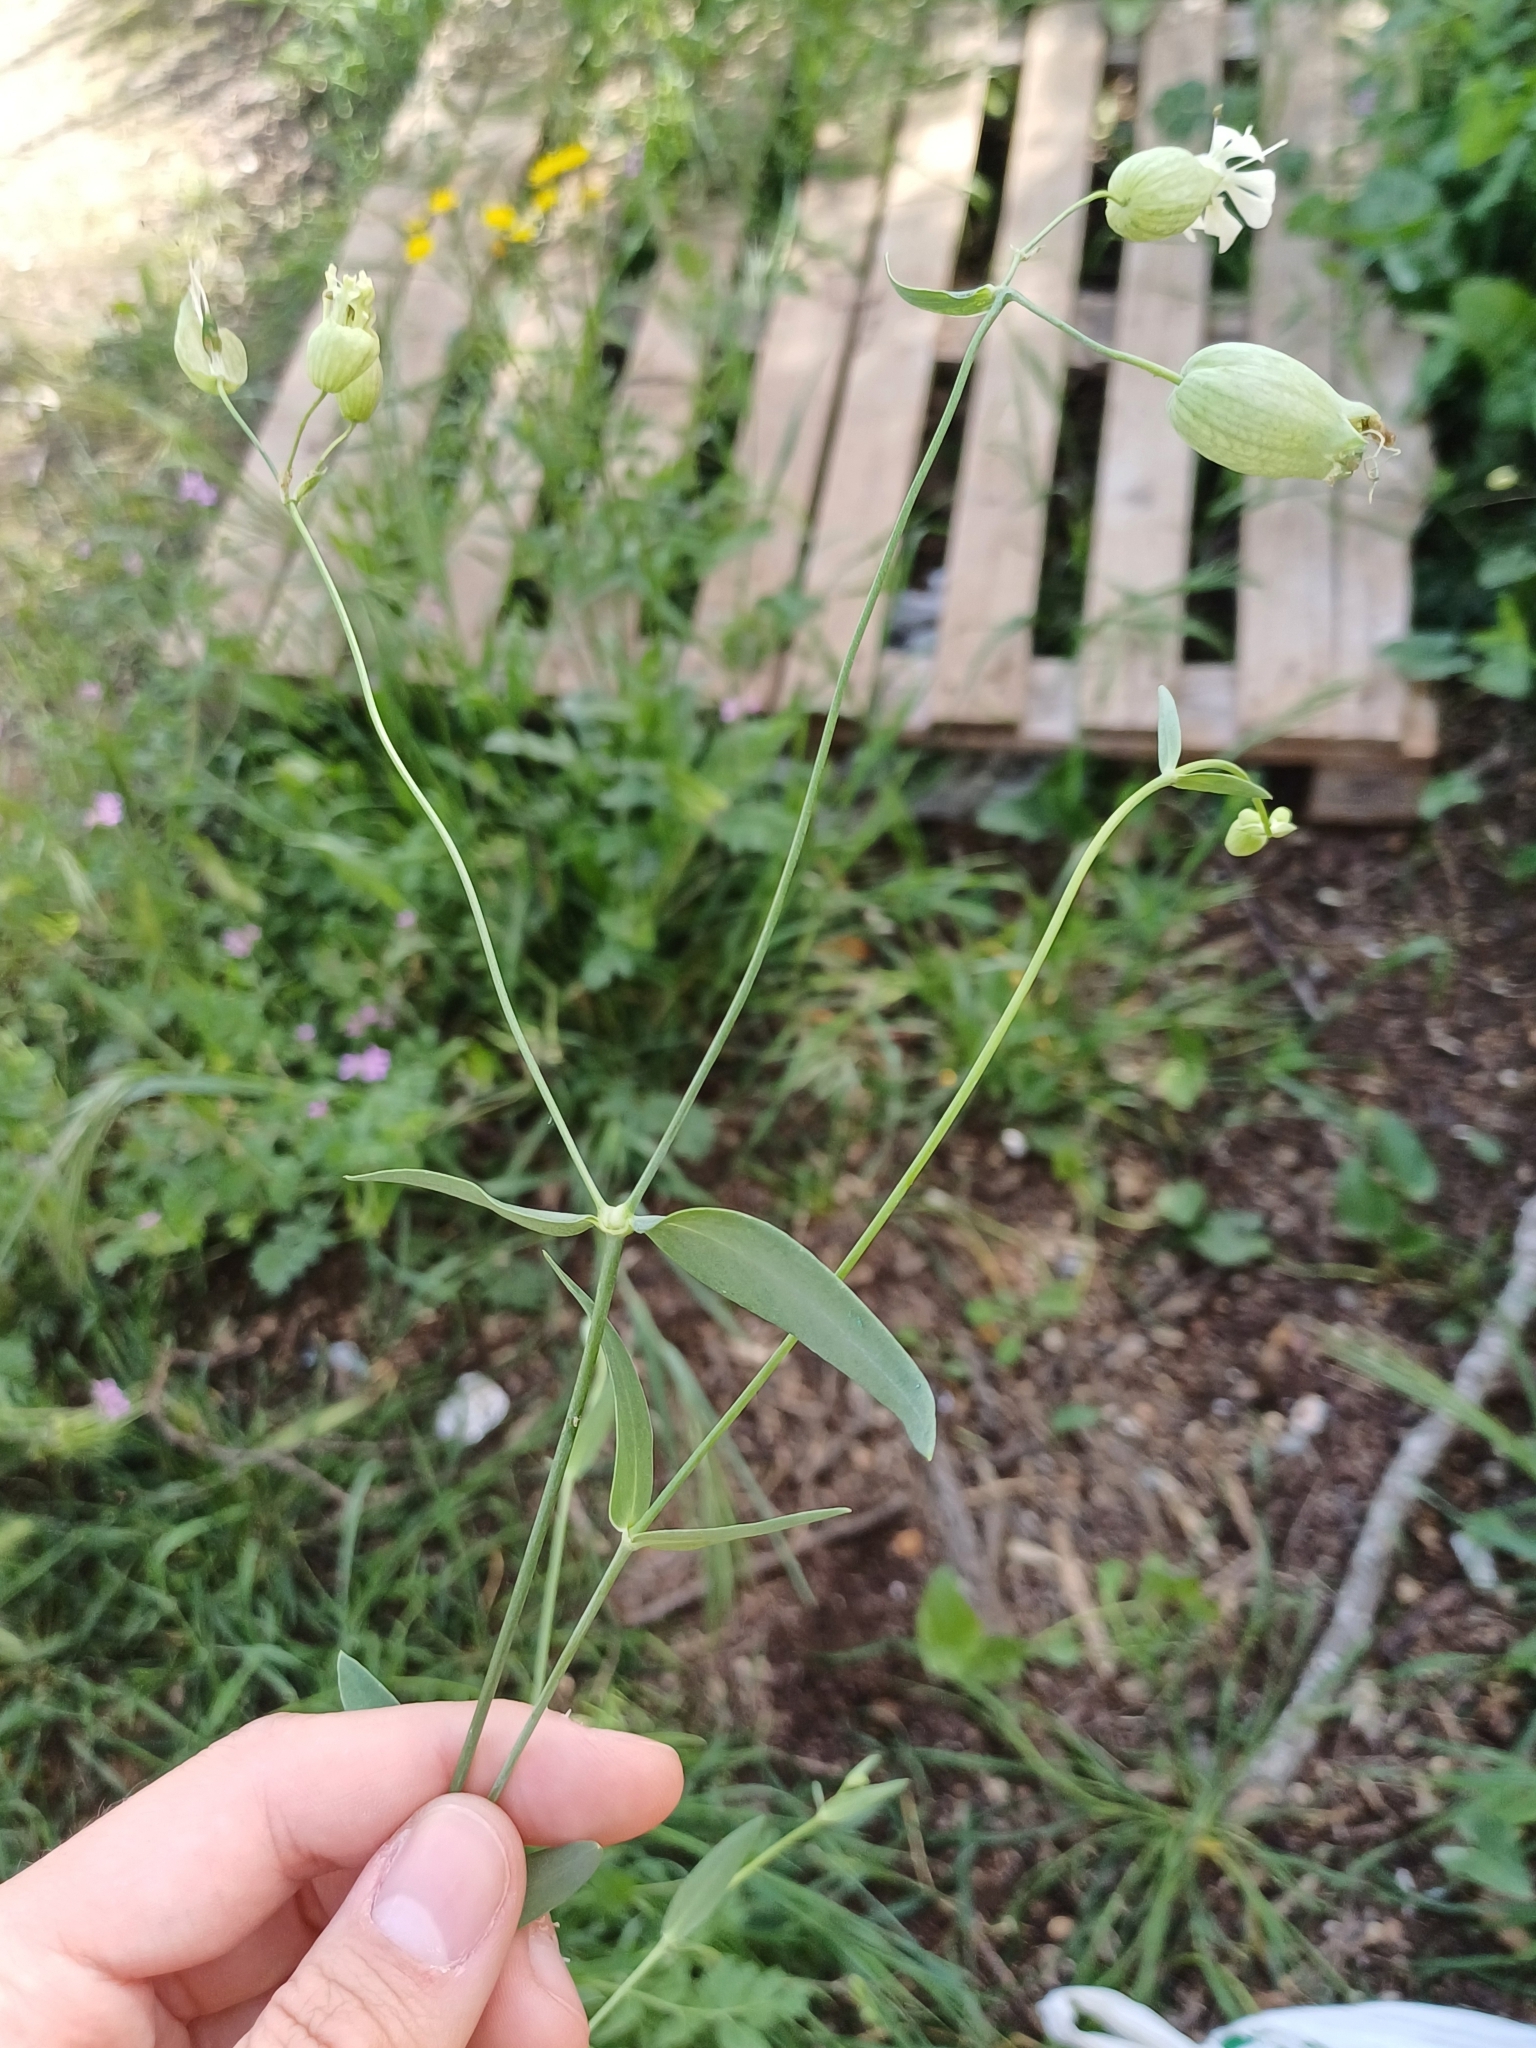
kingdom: Plantae
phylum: Tracheophyta
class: Magnoliopsida
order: Caryophyllales
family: Caryophyllaceae
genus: Silene
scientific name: Silene vulgaris
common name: Bladder campion
